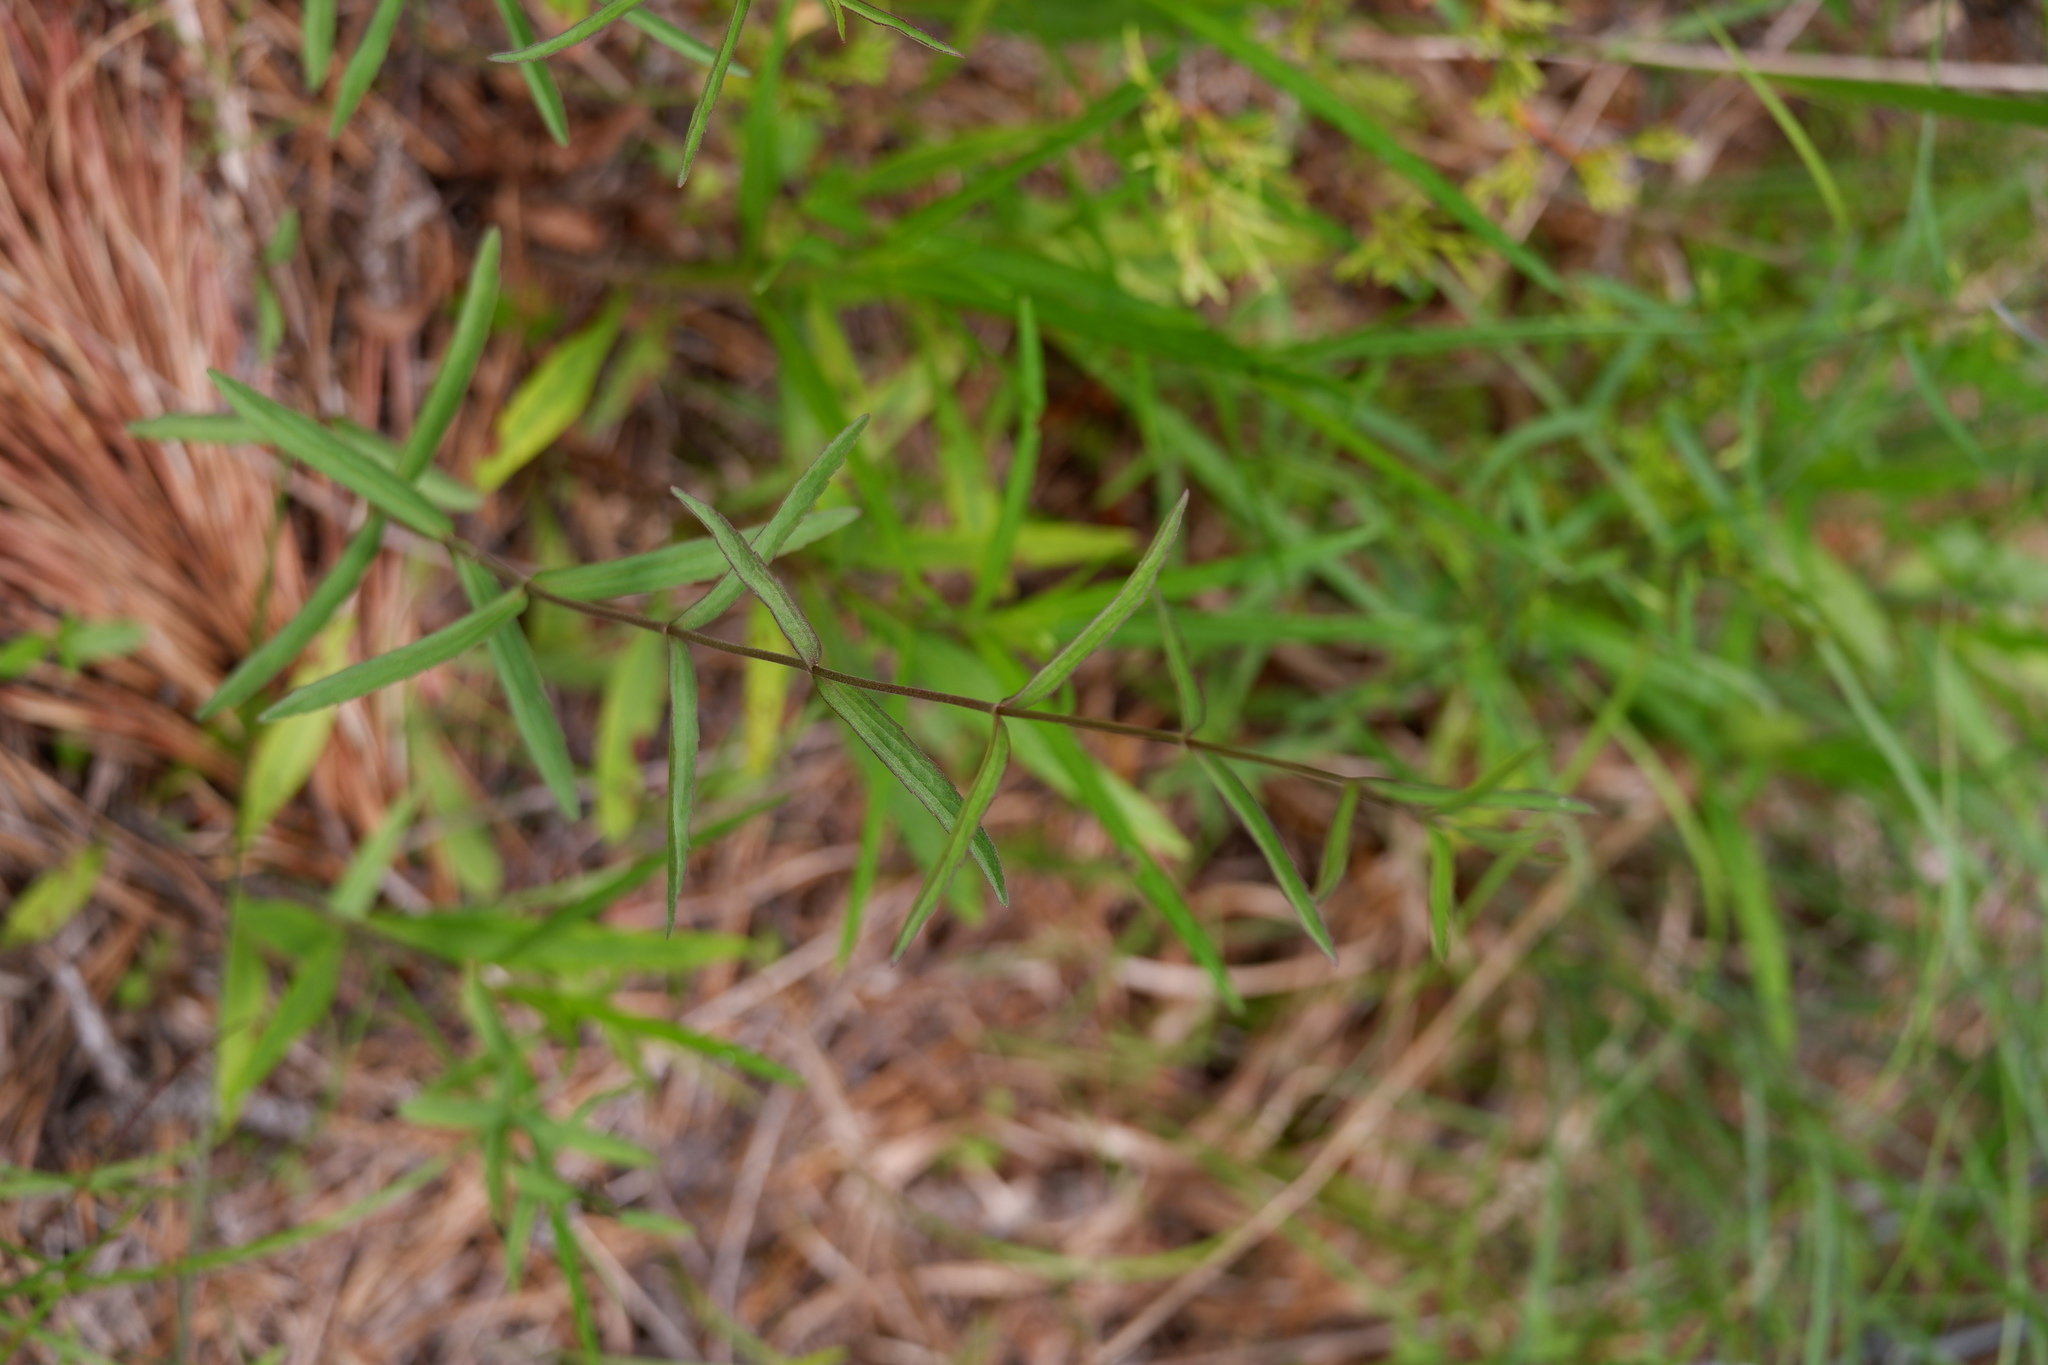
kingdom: Plantae
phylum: Tracheophyta
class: Magnoliopsida
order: Asterales
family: Asteraceae
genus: Eupatorium
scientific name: Eupatorium leucolepis
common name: Justiceweed
